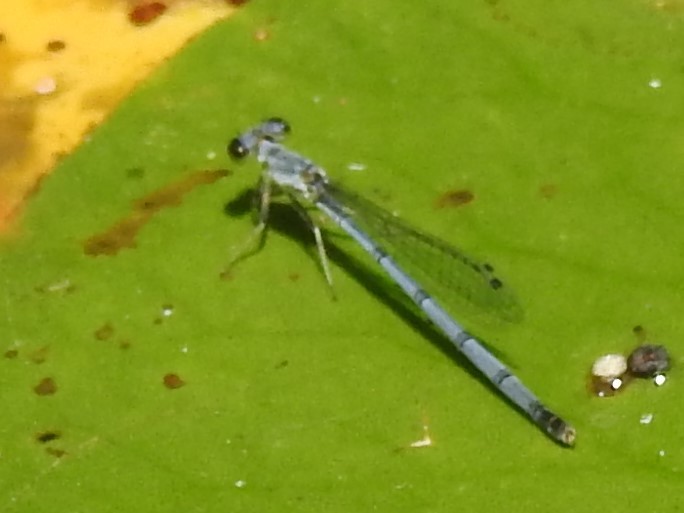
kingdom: Animalia
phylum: Arthropoda
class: Insecta
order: Odonata
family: Coenagrionidae
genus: Ischnura
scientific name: Ischnura posita
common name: Fragile forktail
